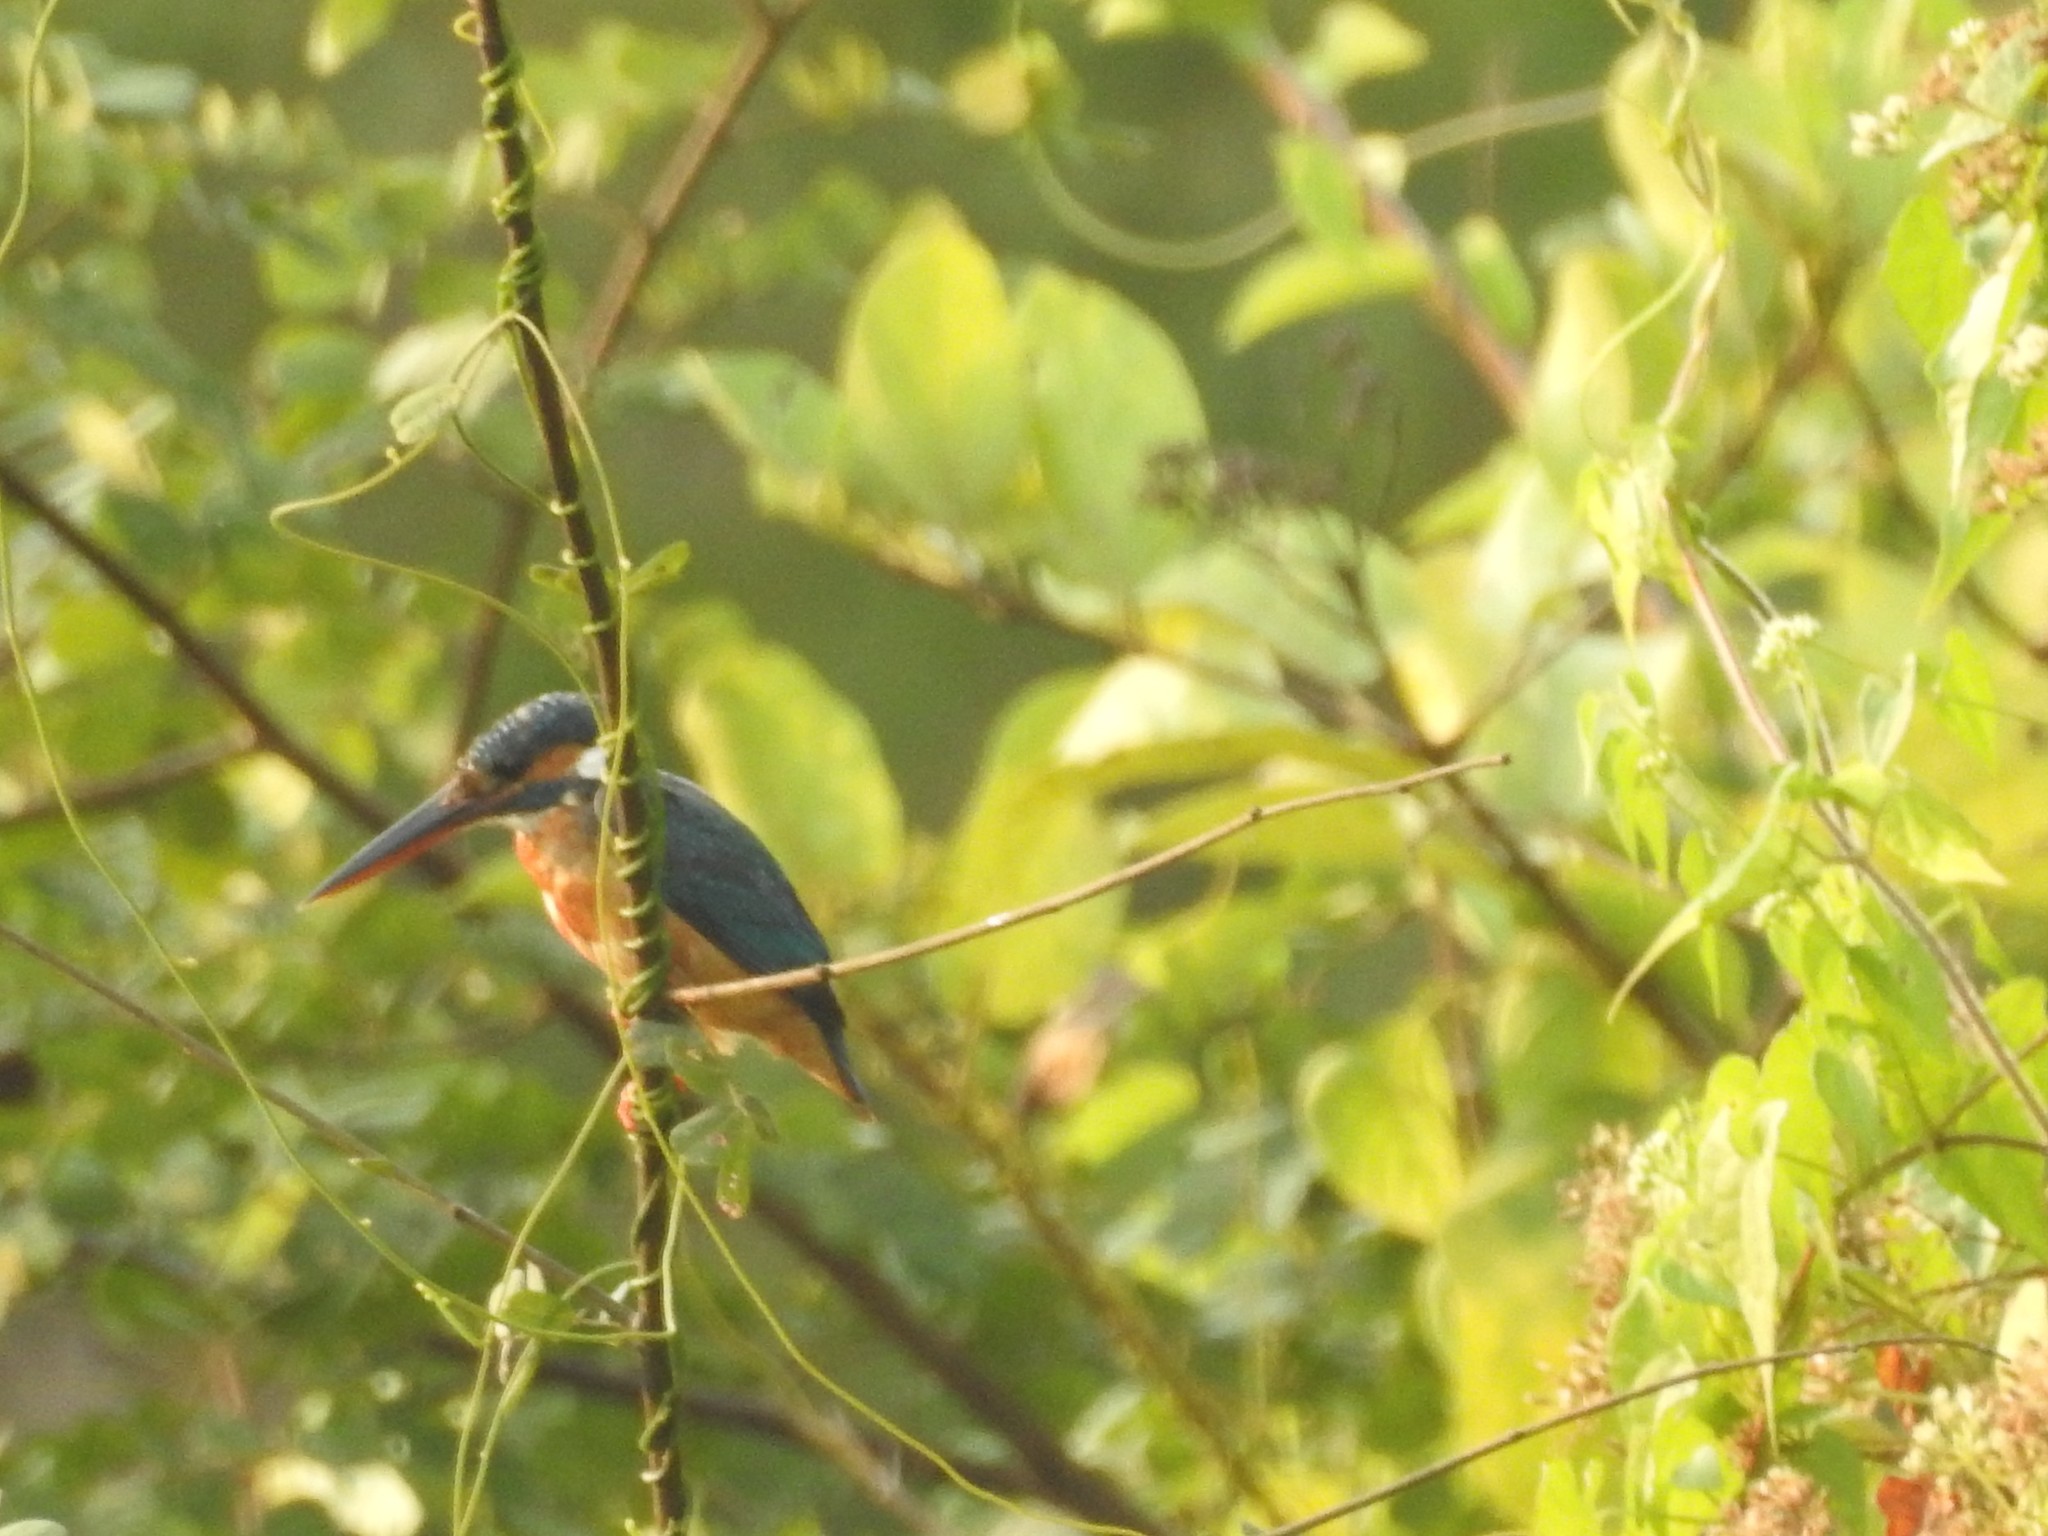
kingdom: Animalia
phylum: Chordata
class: Aves
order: Coraciiformes
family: Alcedinidae
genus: Alcedo
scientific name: Alcedo atthis
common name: Common kingfisher
